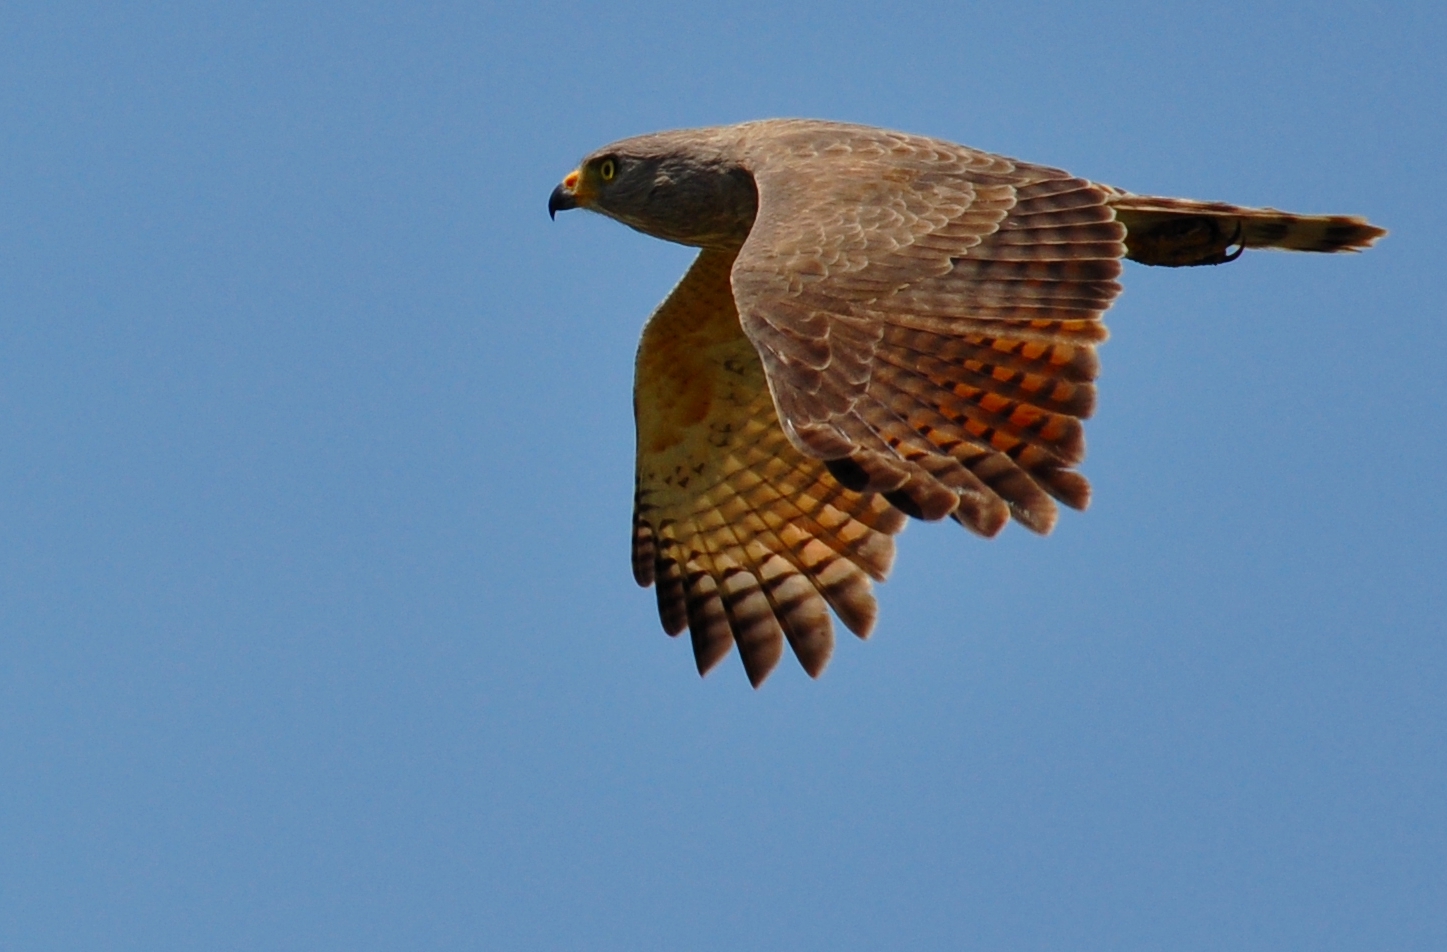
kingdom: Animalia
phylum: Chordata
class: Aves
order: Accipitriformes
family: Accipitridae
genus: Rupornis
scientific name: Rupornis magnirostris
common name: Roadside hawk
